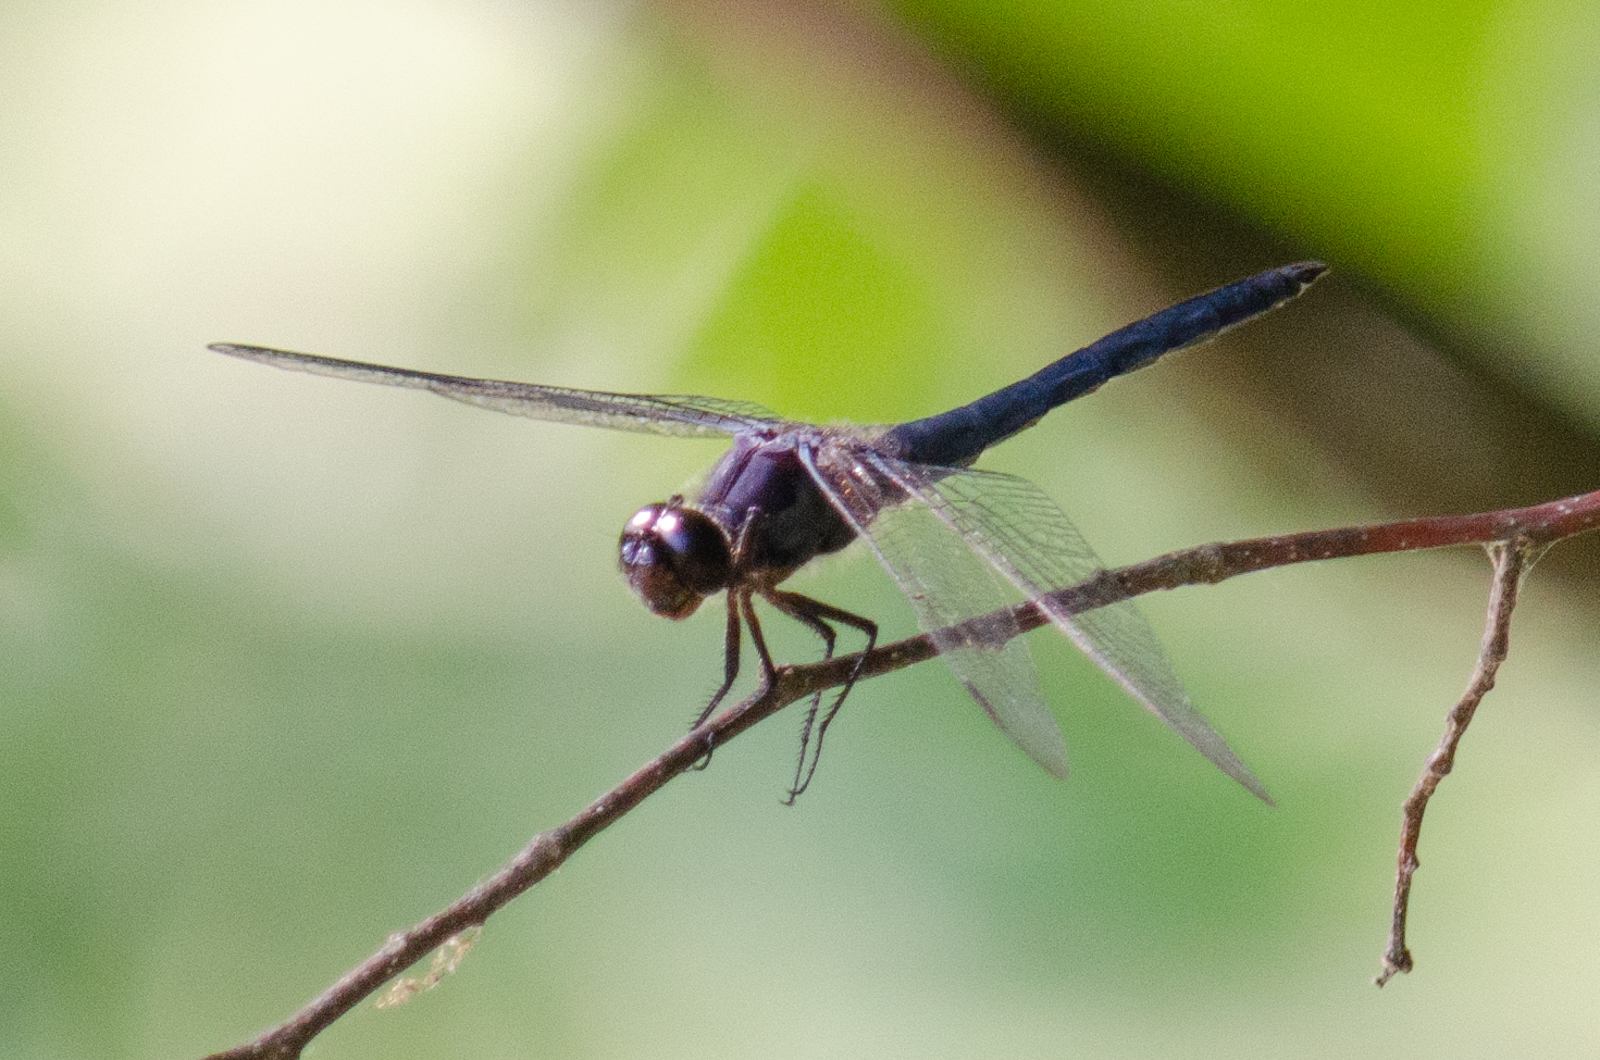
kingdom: Animalia
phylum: Arthropoda
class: Insecta
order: Odonata
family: Libellulidae
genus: Libellula
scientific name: Libellula incesta
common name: Slaty skimmer
